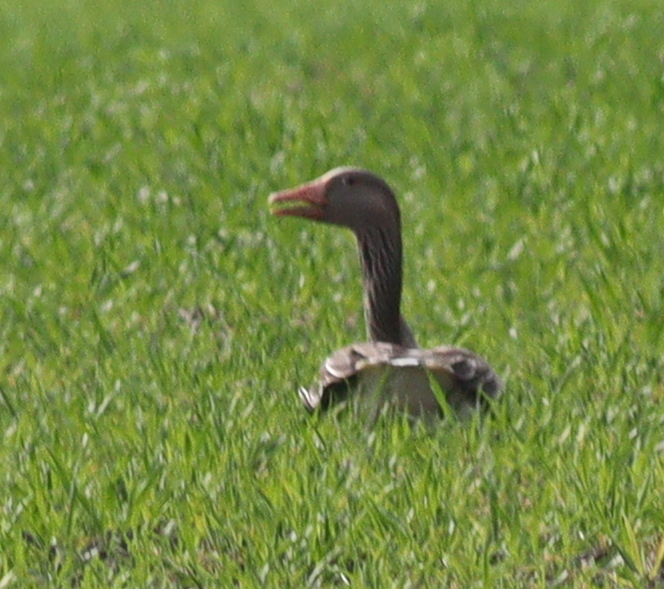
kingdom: Animalia
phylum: Chordata
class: Aves
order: Anseriformes
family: Anatidae
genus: Anser
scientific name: Anser anser
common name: Greylag goose
